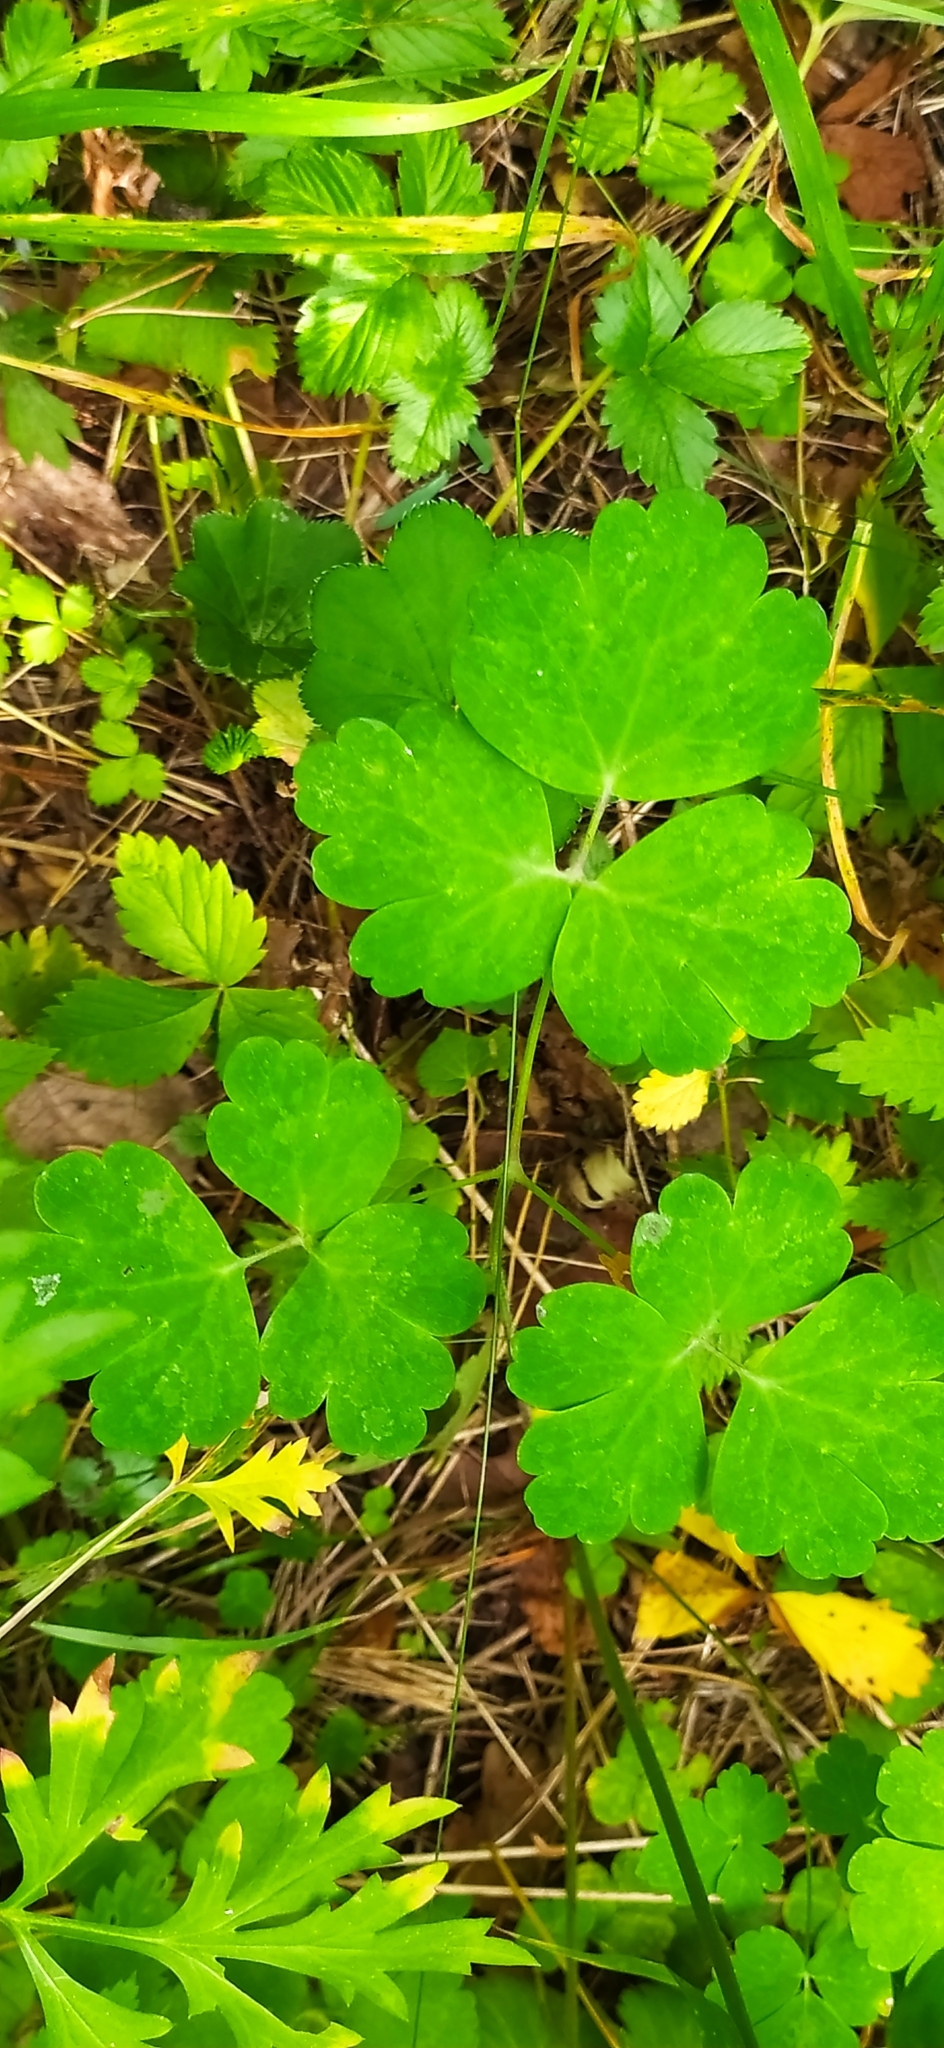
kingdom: Plantae
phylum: Tracheophyta
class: Magnoliopsida
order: Ranunculales
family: Ranunculaceae
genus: Aquilegia
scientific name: Aquilegia vulgaris
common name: Columbine
